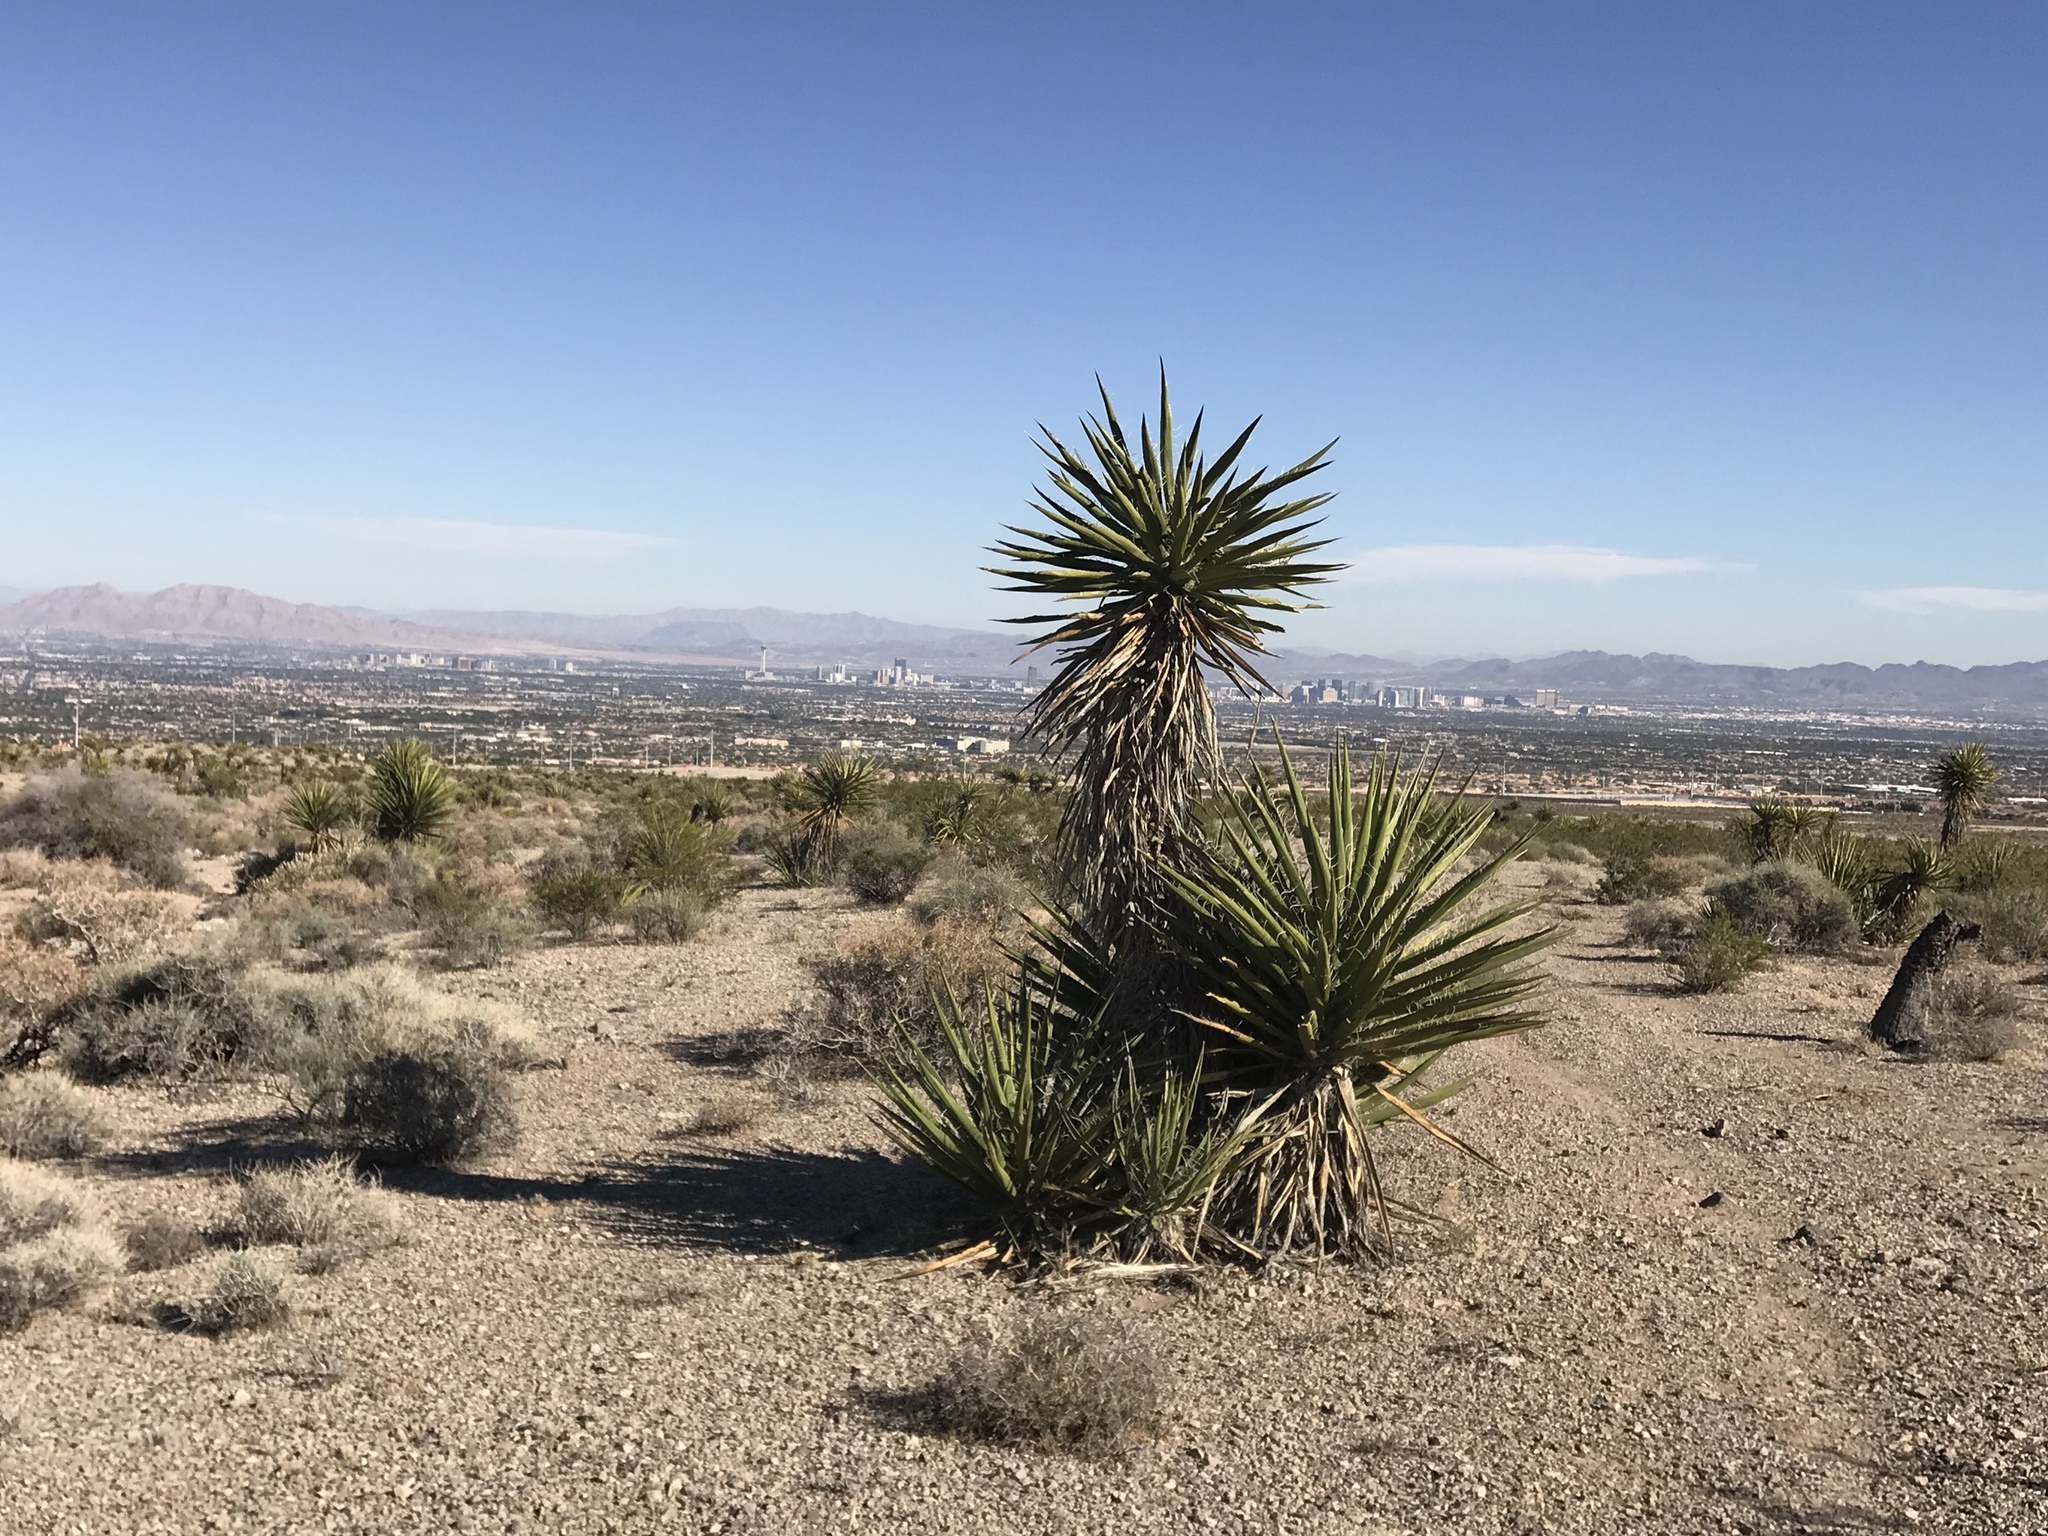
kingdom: Plantae
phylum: Tracheophyta
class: Liliopsida
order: Asparagales
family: Asparagaceae
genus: Yucca
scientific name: Yucca schidigera
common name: Mojave yucca
